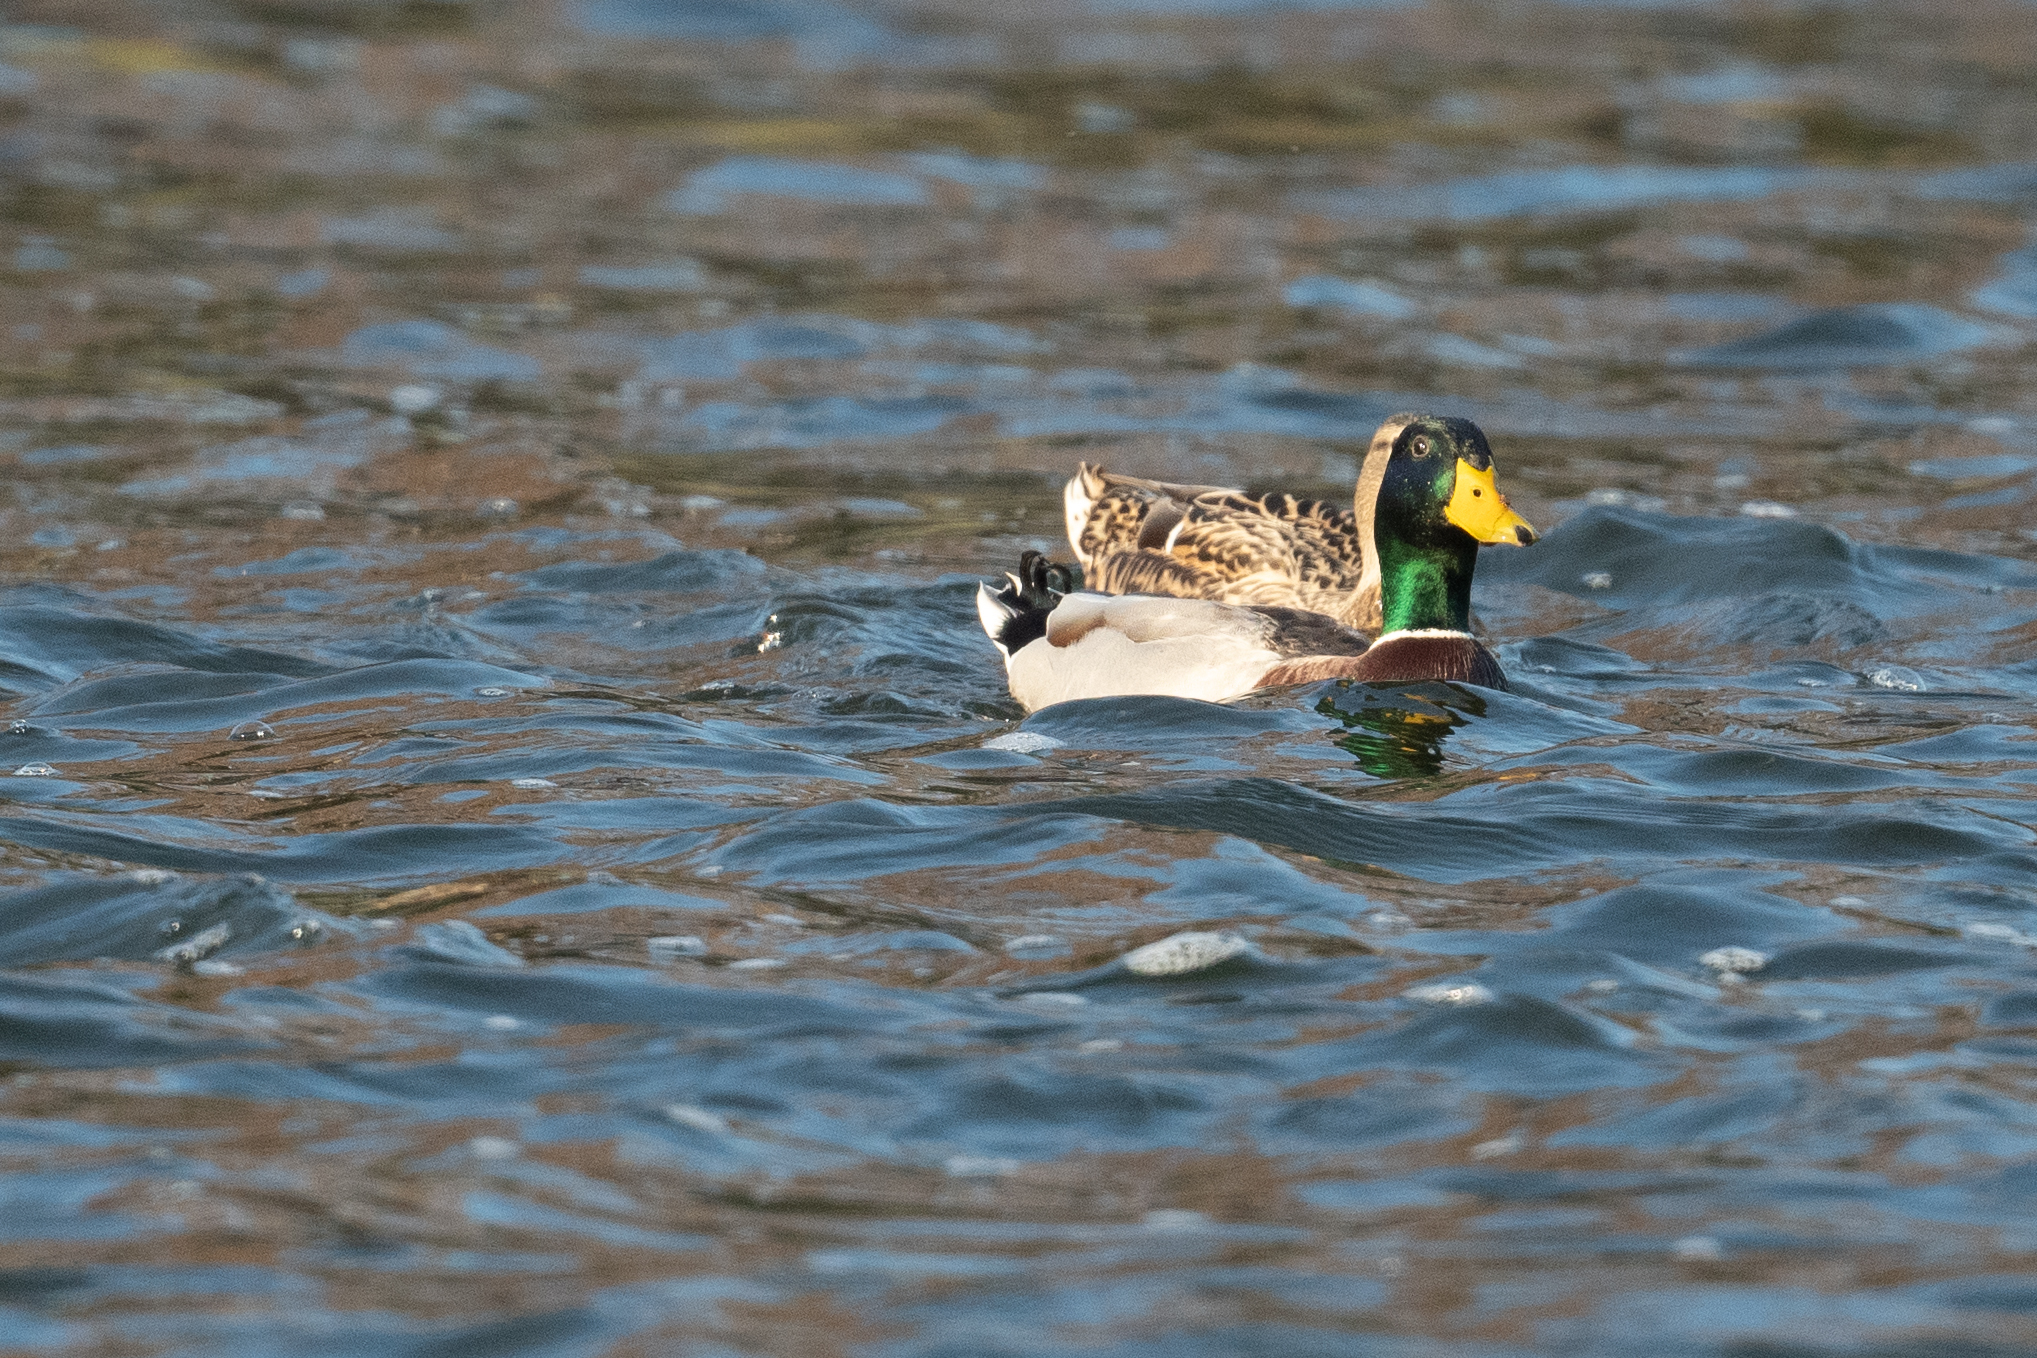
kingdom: Animalia
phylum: Chordata
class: Aves
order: Anseriformes
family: Anatidae
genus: Anas
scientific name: Anas platyrhynchos
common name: Mallard
